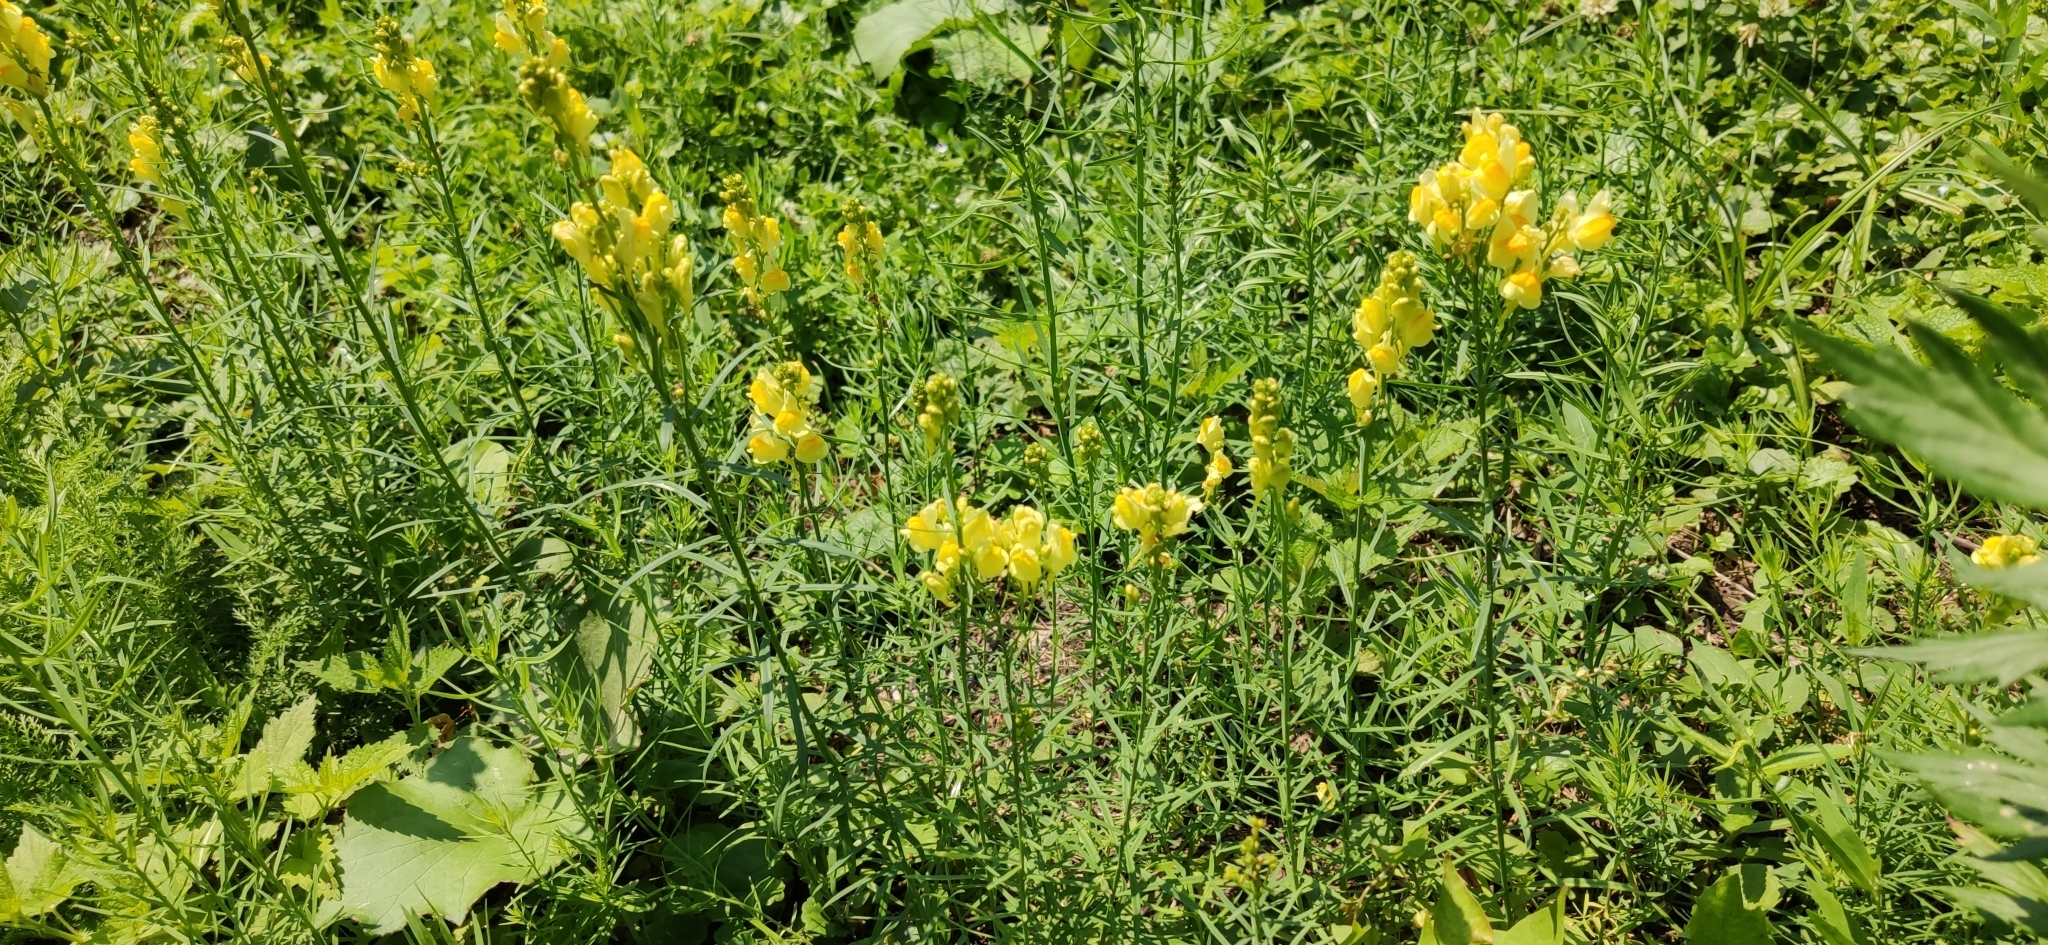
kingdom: Plantae
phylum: Tracheophyta
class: Magnoliopsida
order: Lamiales
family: Plantaginaceae
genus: Linaria
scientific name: Linaria vulgaris
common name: Butter and eggs
